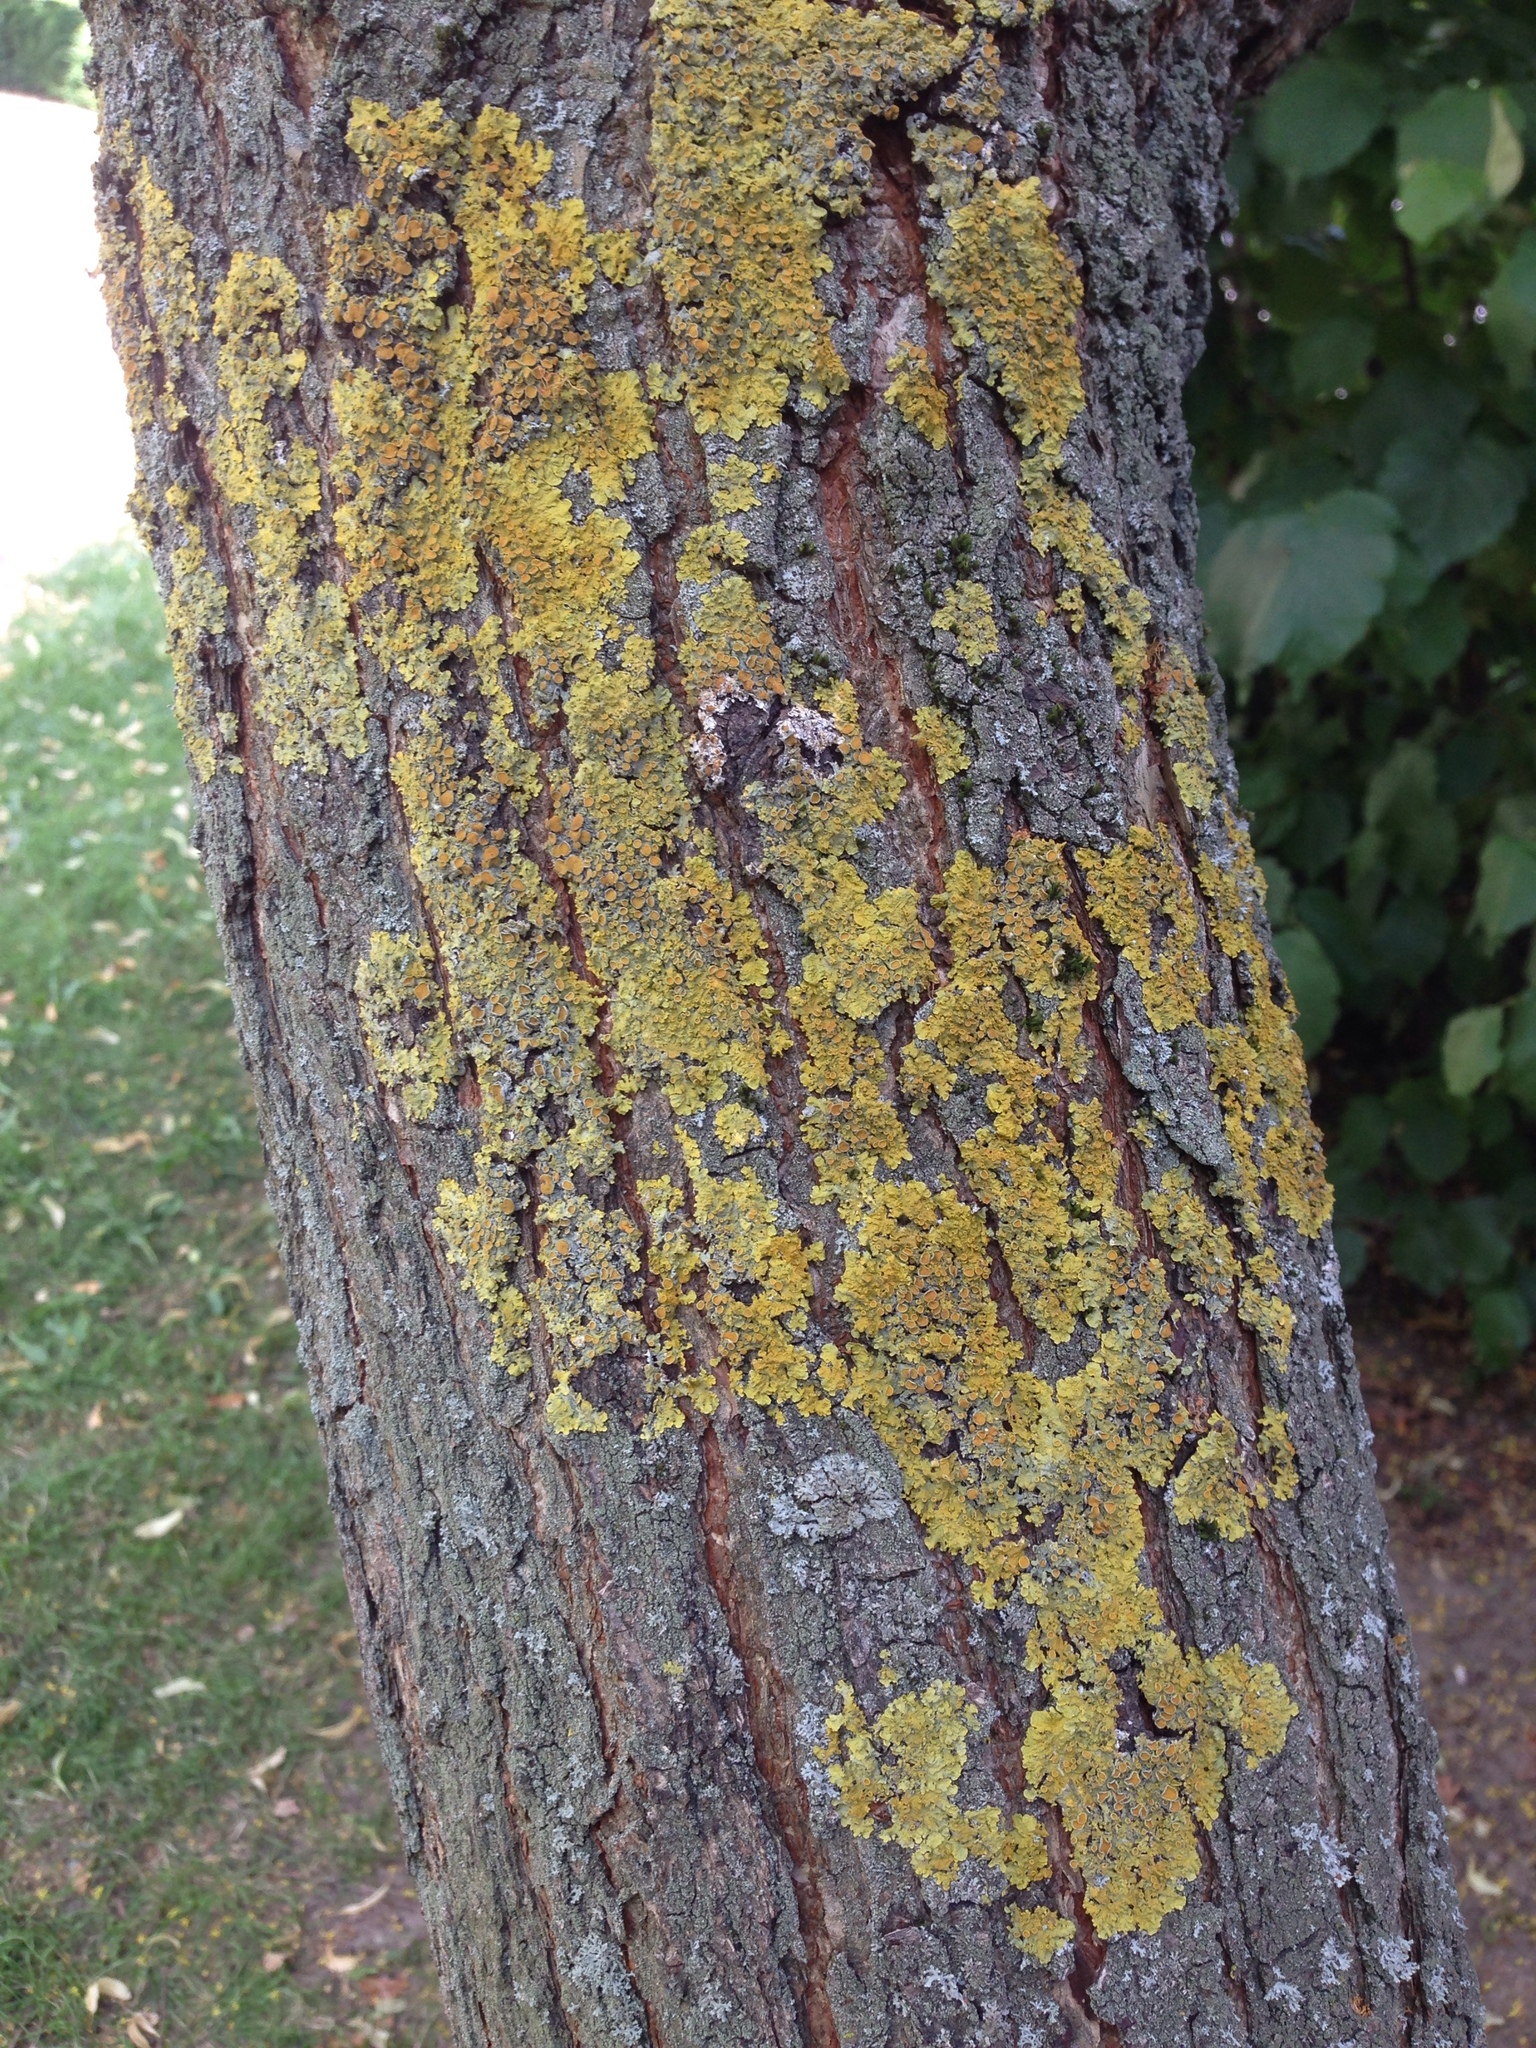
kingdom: Fungi
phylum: Ascomycota
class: Lecanoromycetes
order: Teloschistales
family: Teloschistaceae
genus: Xanthoria
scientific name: Xanthoria parietina
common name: Common orange lichen
